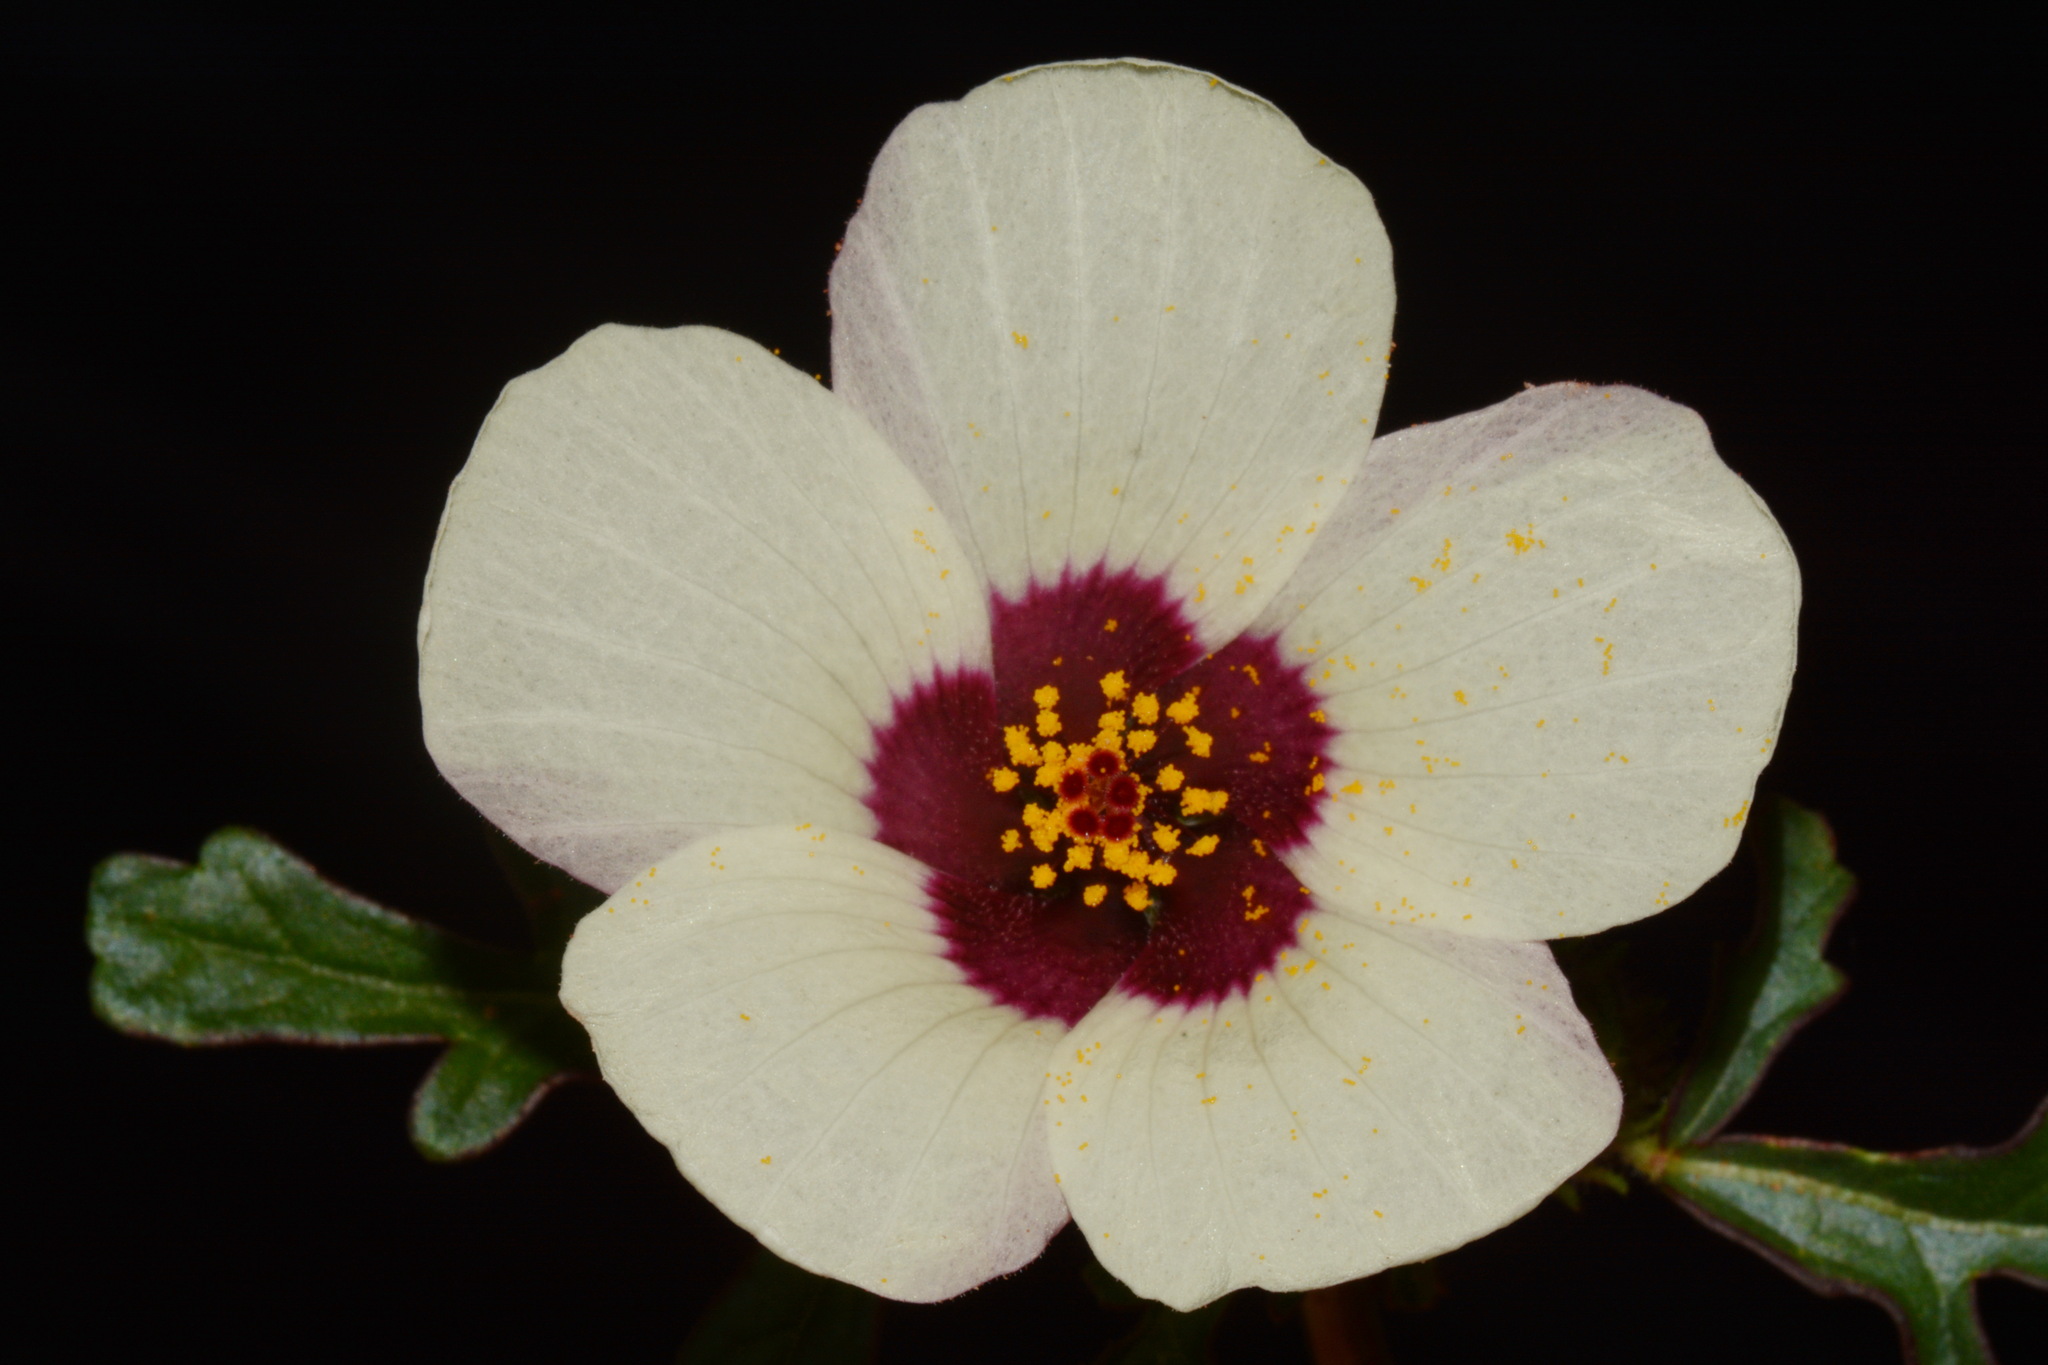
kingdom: Plantae
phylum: Tracheophyta
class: Magnoliopsida
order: Malvales
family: Malvaceae
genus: Hibiscus
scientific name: Hibiscus trionum
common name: Bladder ketmia
